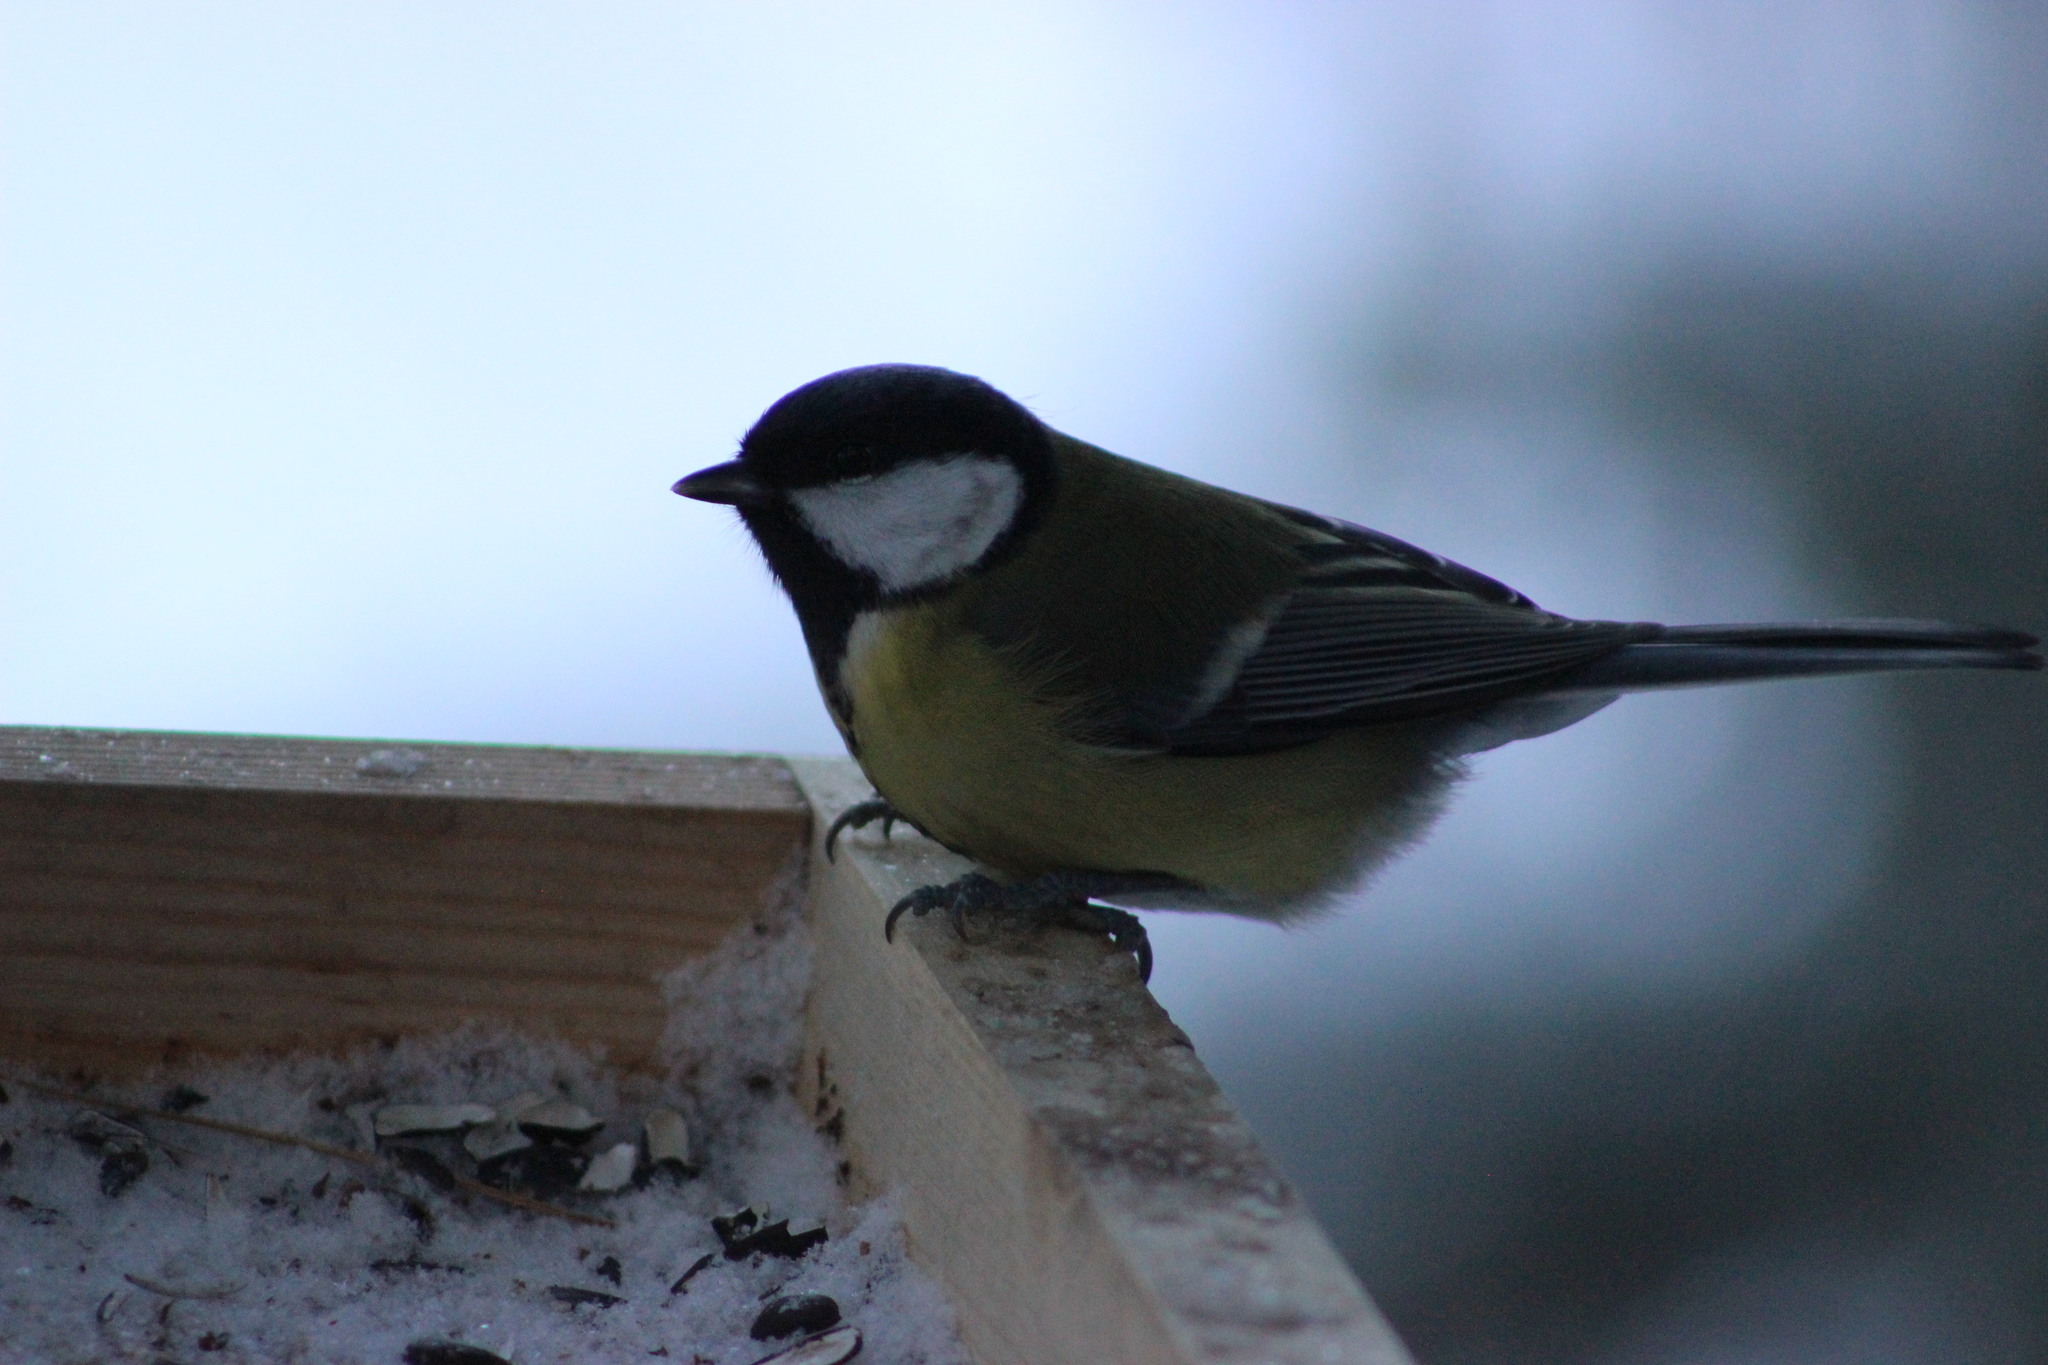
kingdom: Animalia
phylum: Chordata
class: Aves
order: Passeriformes
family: Paridae
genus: Parus
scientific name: Parus major
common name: Great tit
